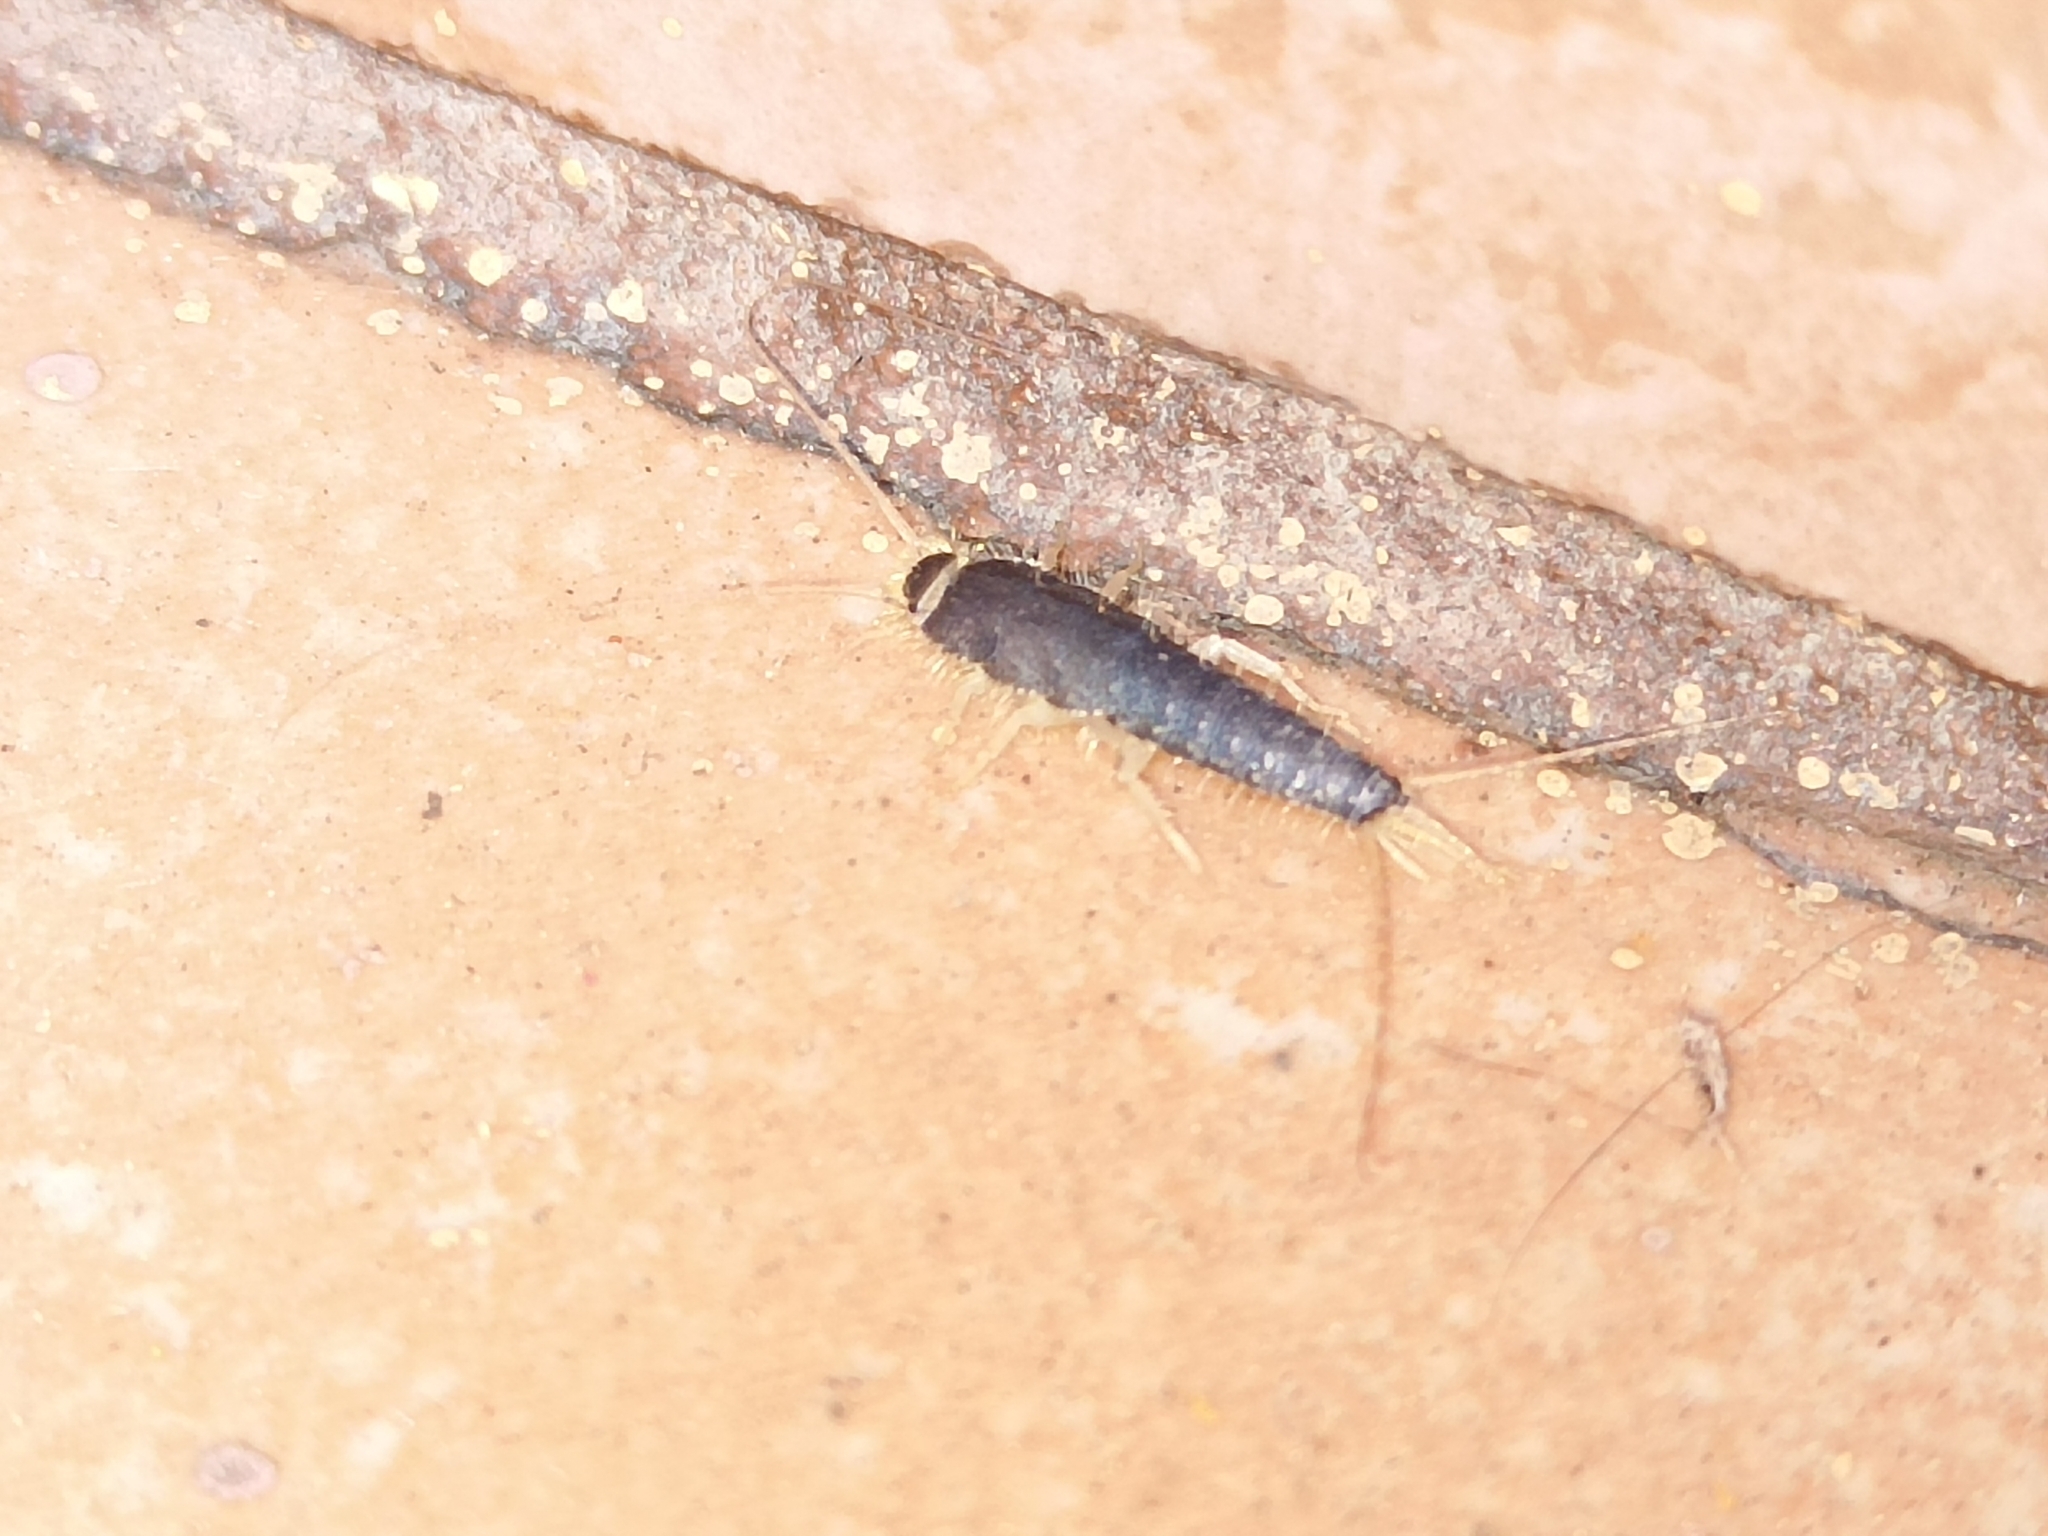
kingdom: Animalia
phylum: Arthropoda
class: Insecta
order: Zygentoma
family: Lepismatidae
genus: Ctenolepisma
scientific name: Ctenolepisma longicaudatum
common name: Silverfish
